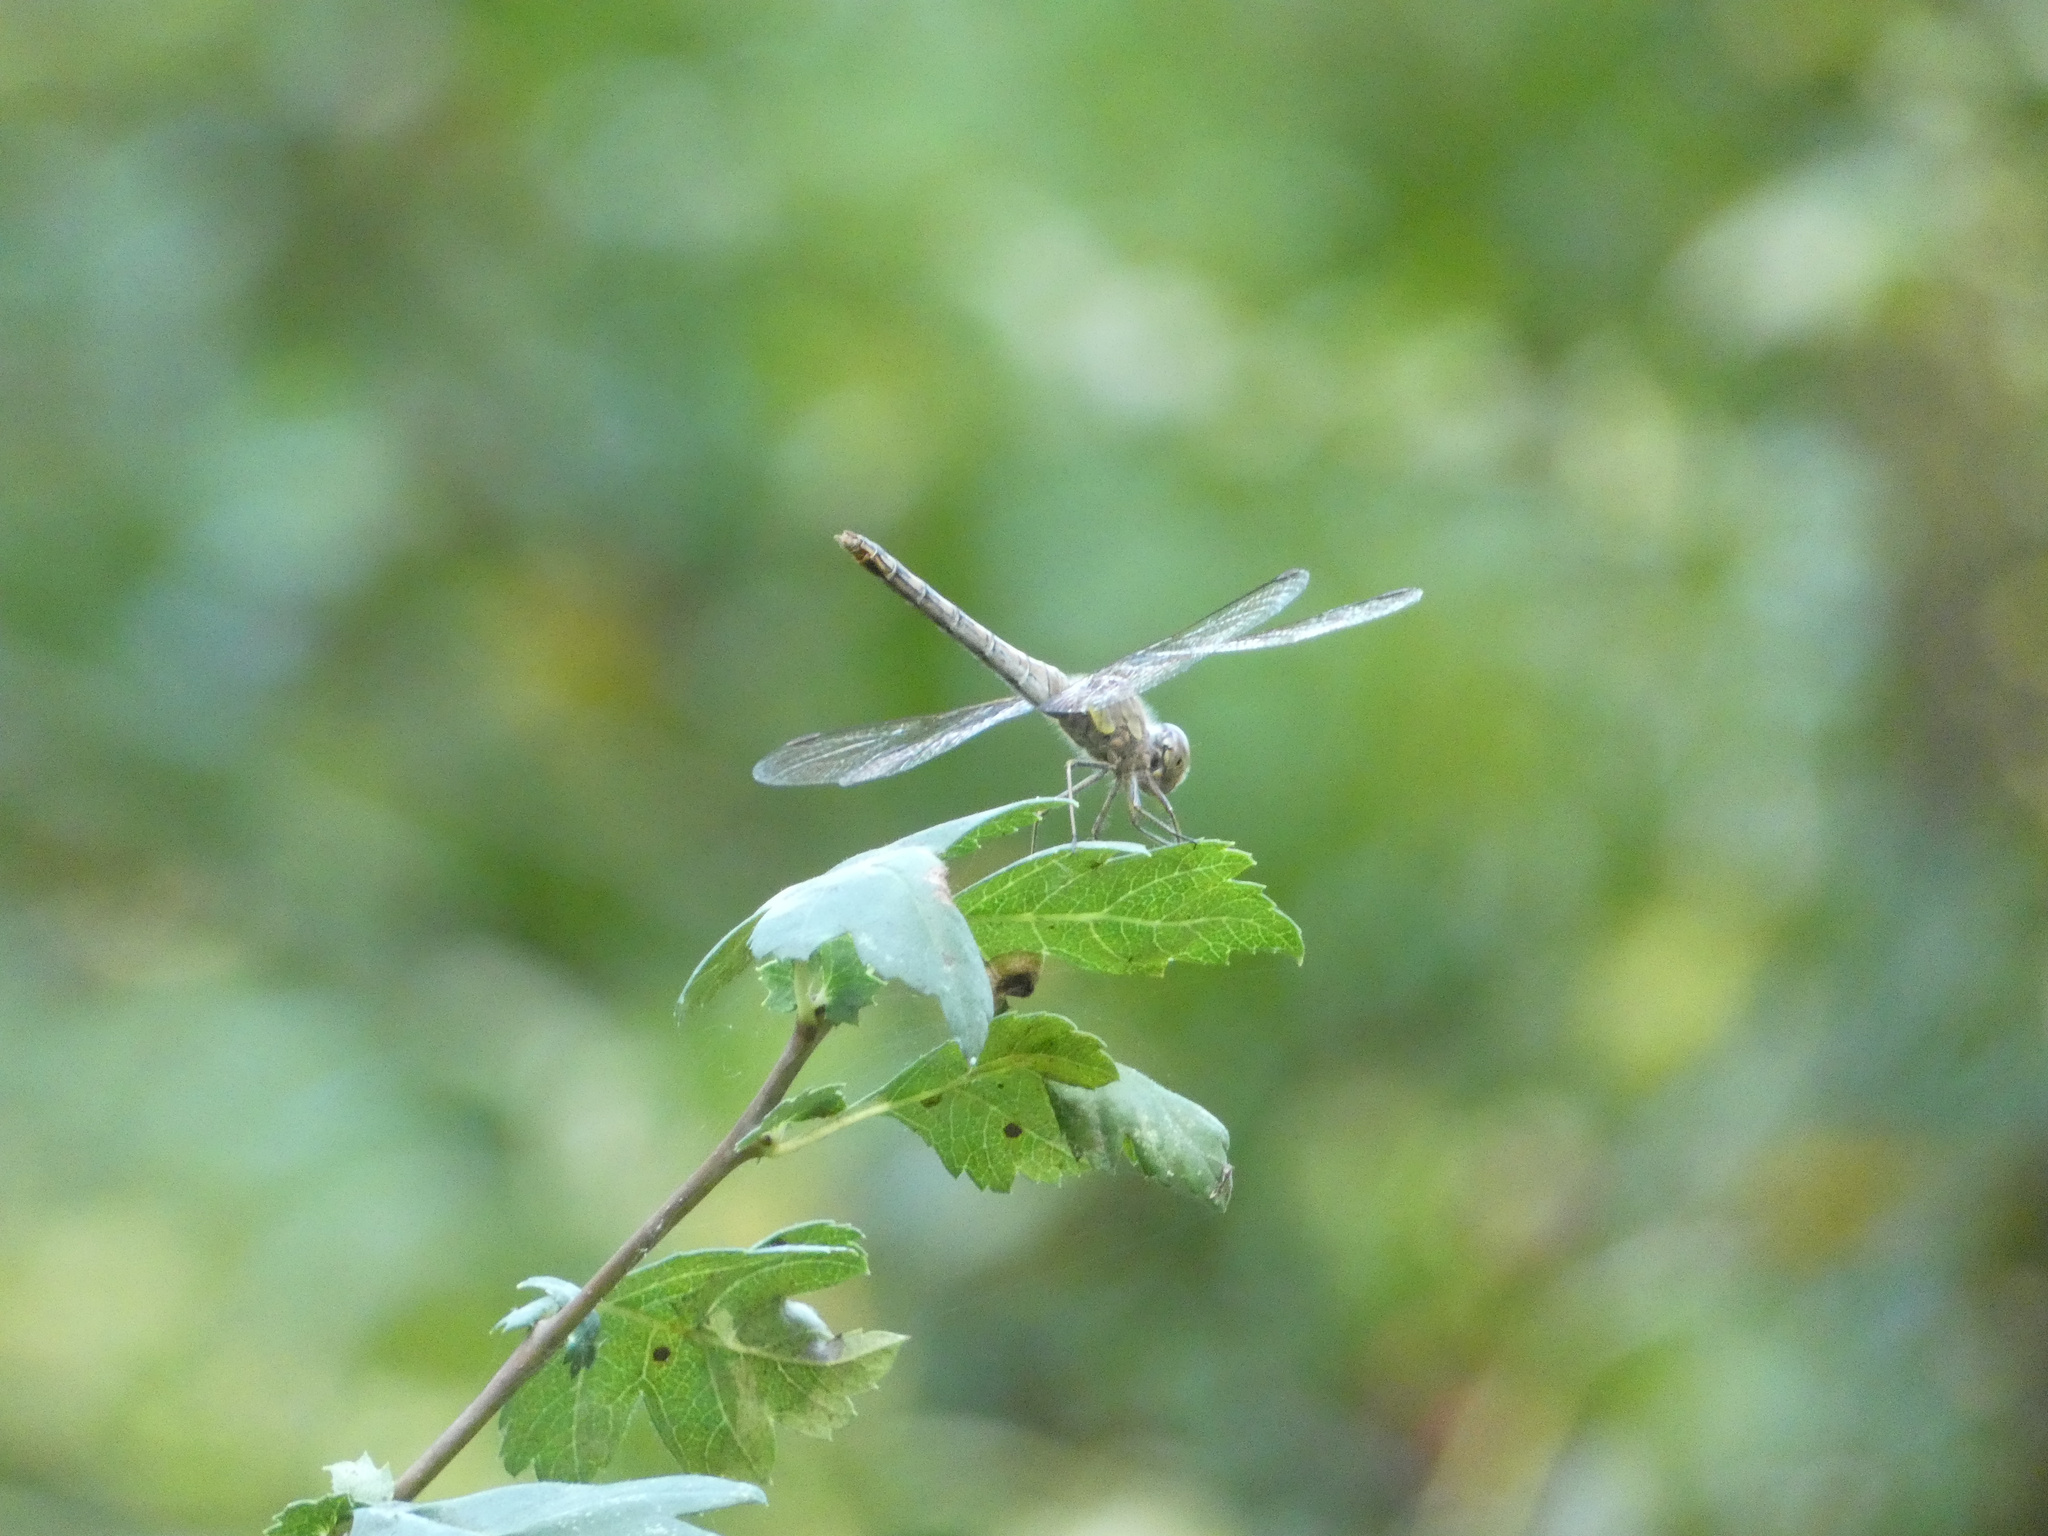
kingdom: Animalia
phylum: Arthropoda
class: Insecta
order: Odonata
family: Libellulidae
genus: Sympetrum
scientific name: Sympetrum striolatum
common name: Common darter
